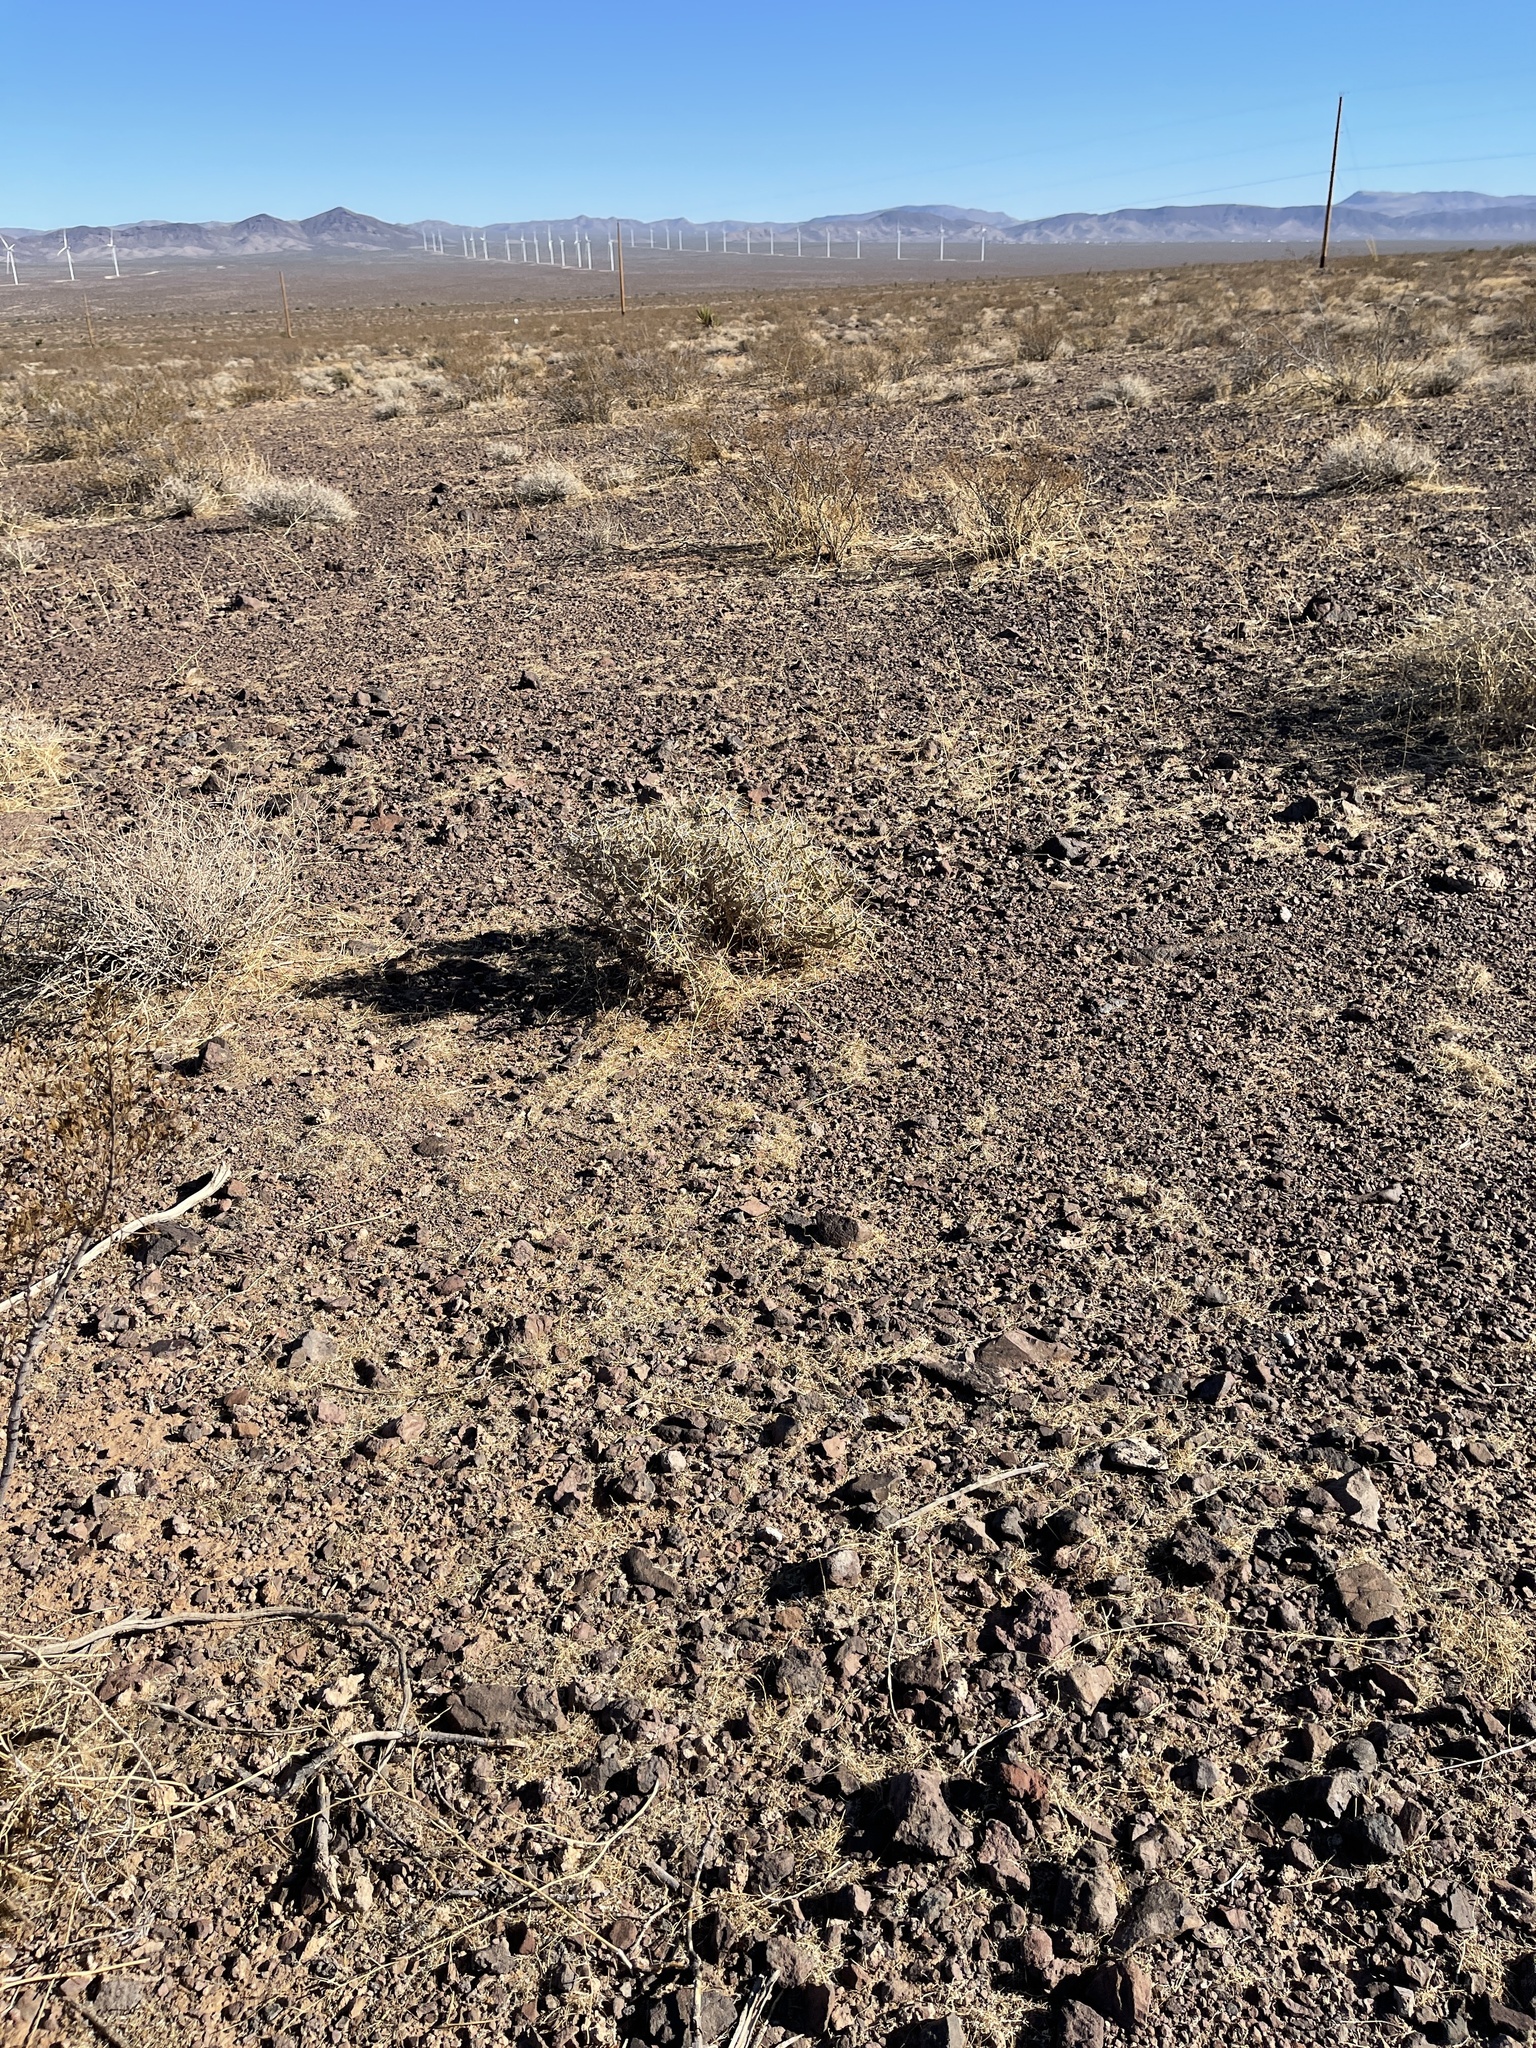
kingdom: Plantae
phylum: Tracheophyta
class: Magnoliopsida
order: Caryophyllales
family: Cactaceae
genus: Cylindropuntia
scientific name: Cylindropuntia ramosissima
